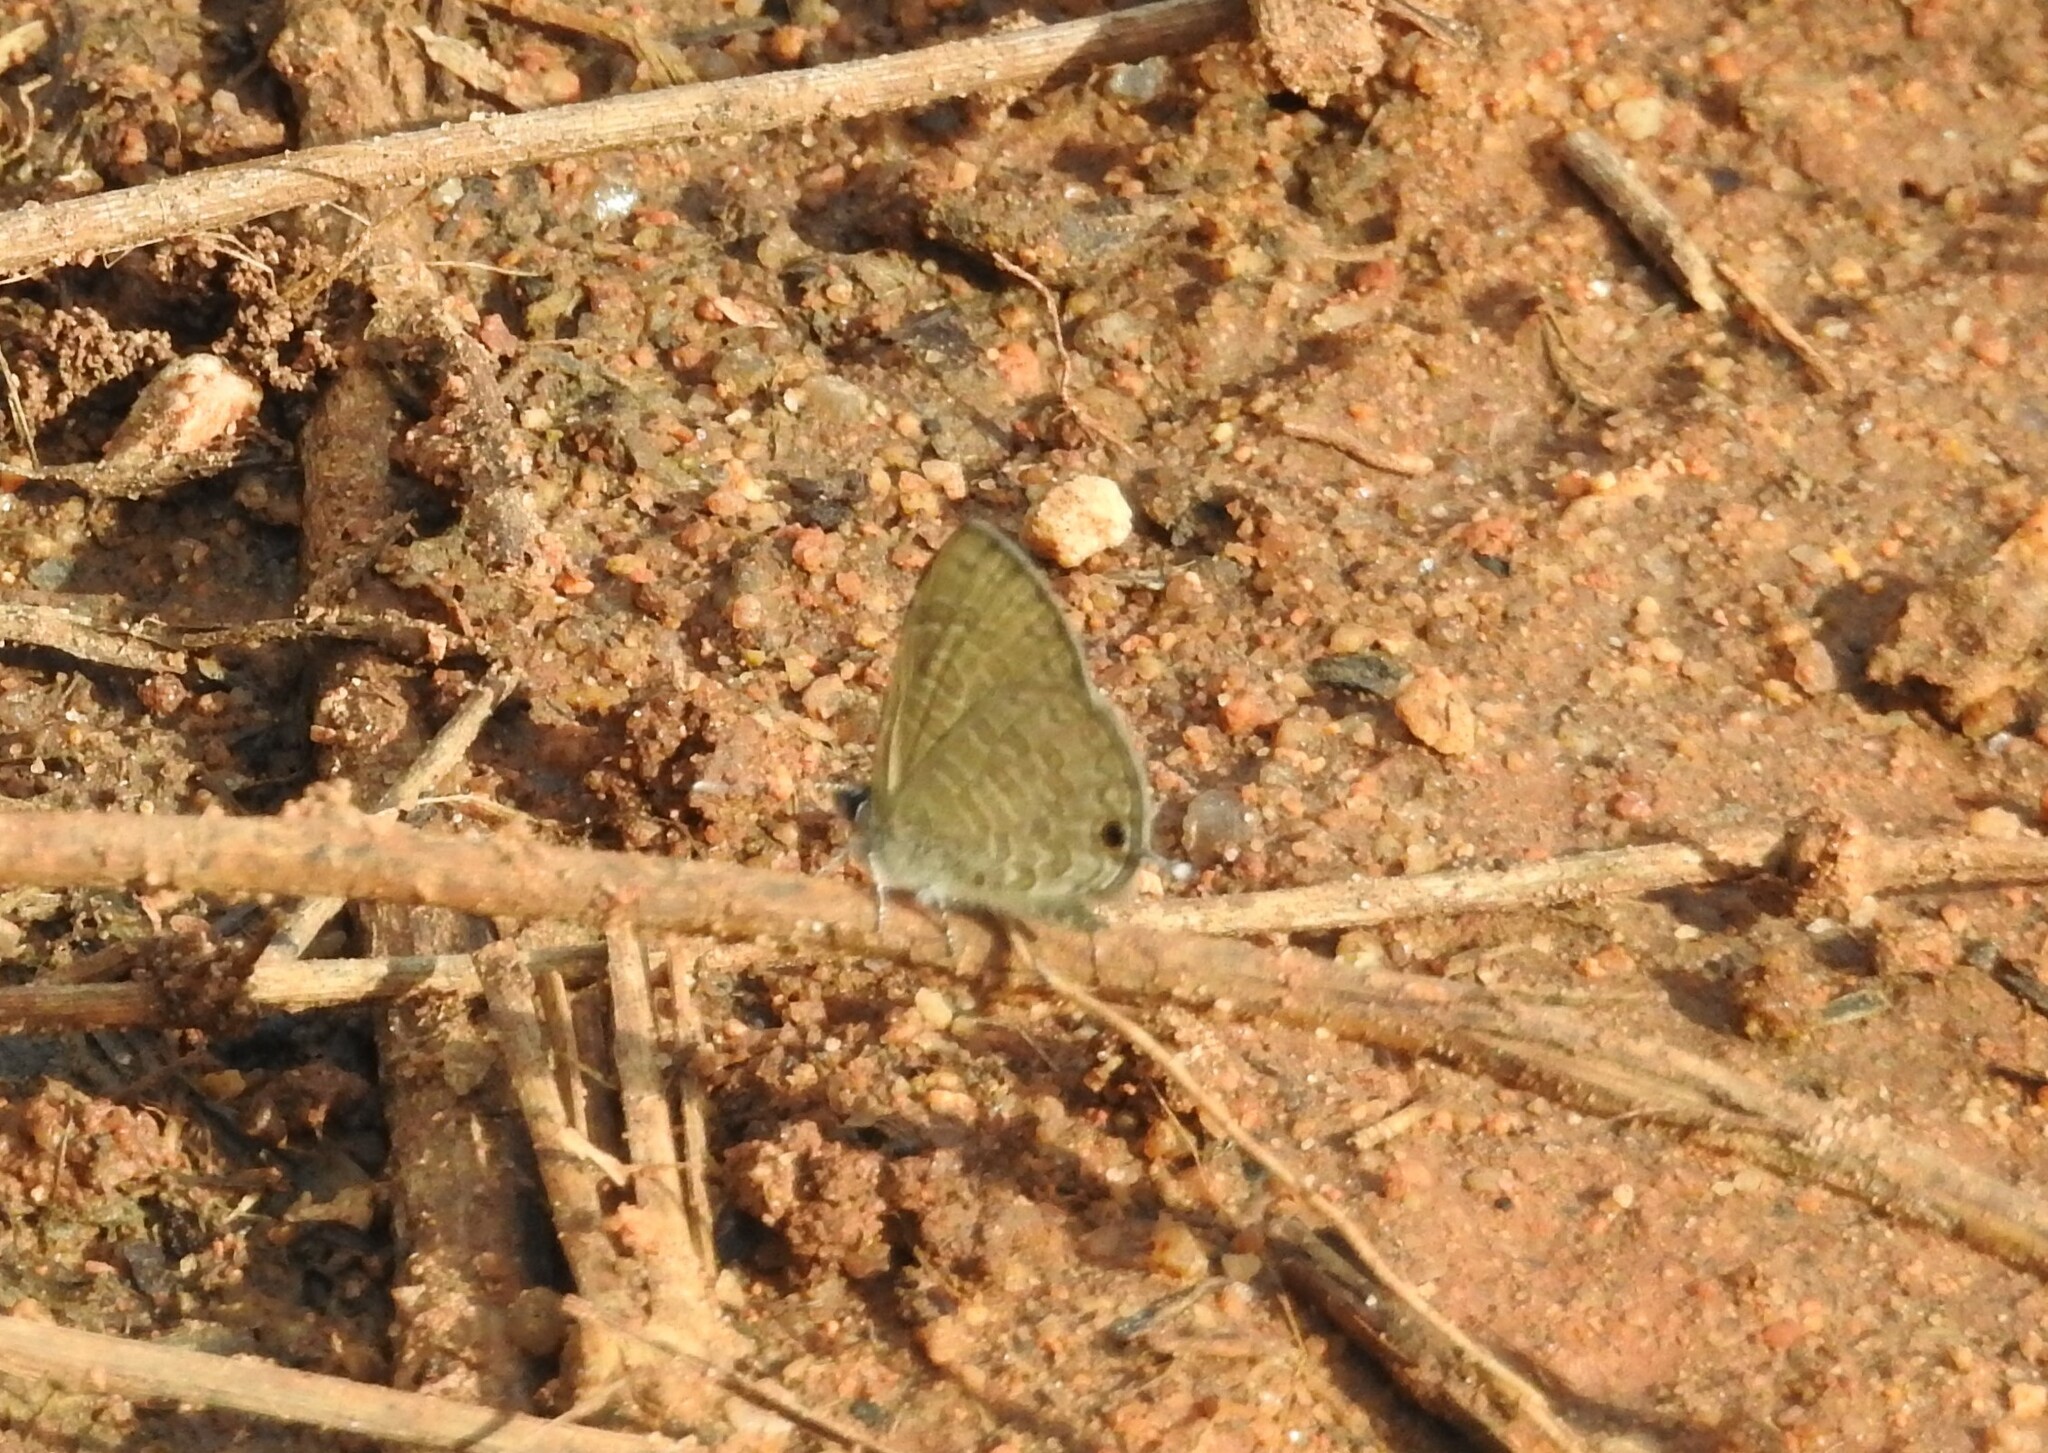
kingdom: Animalia
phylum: Arthropoda
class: Insecta
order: Lepidoptera
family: Lycaenidae
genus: Prosotas
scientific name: Prosotas nora
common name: Common line blue
